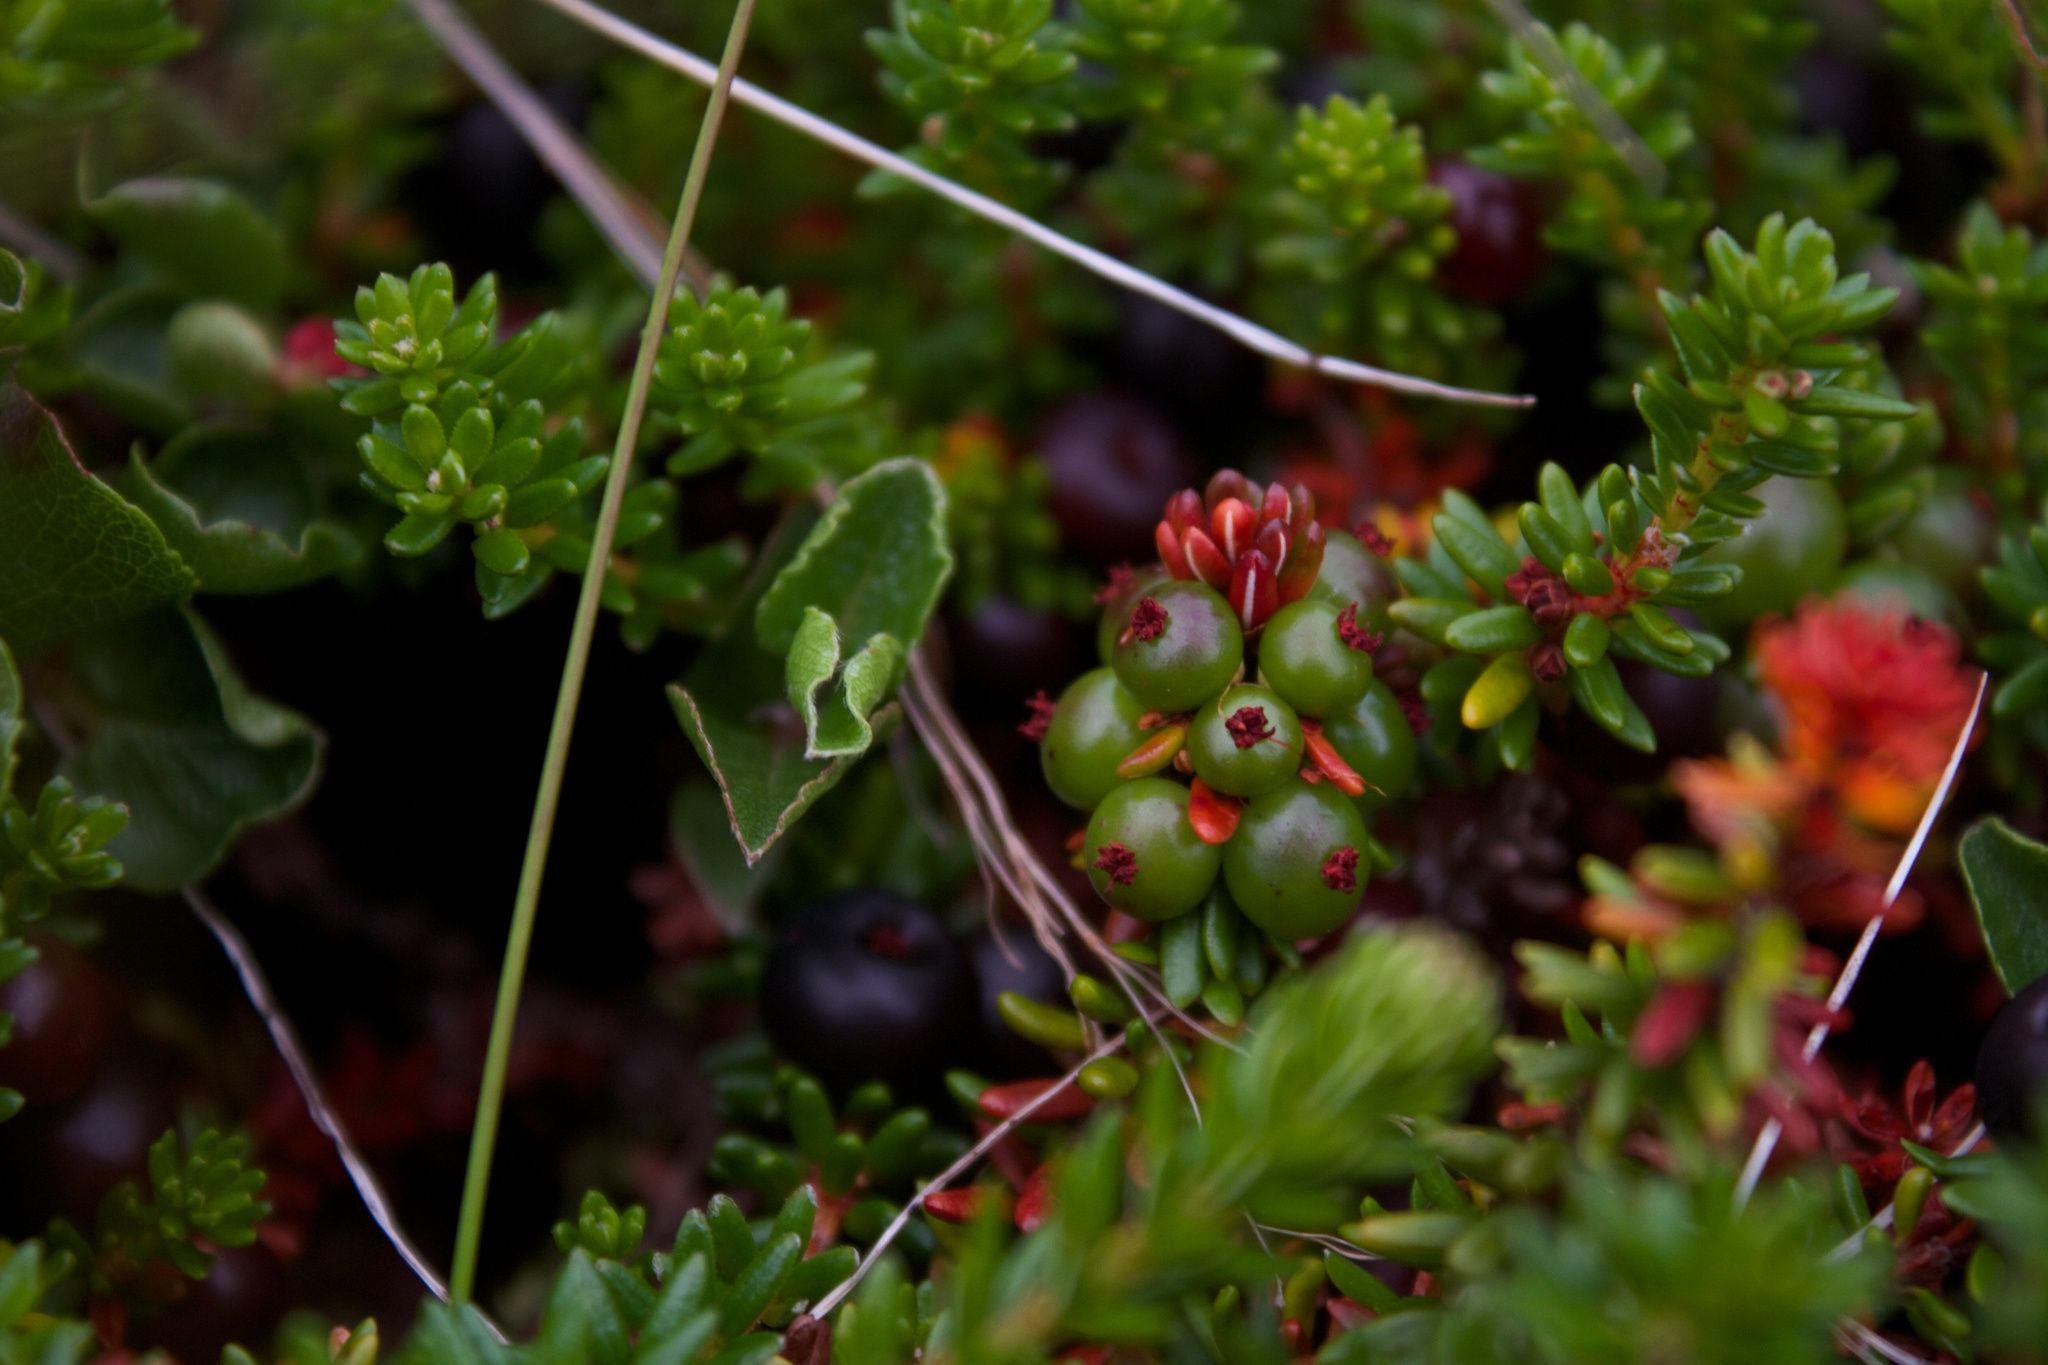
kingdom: Plantae
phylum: Tracheophyta
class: Magnoliopsida
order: Ericales
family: Ericaceae
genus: Empetrum
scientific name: Empetrum nigrum
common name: Black crowberry
